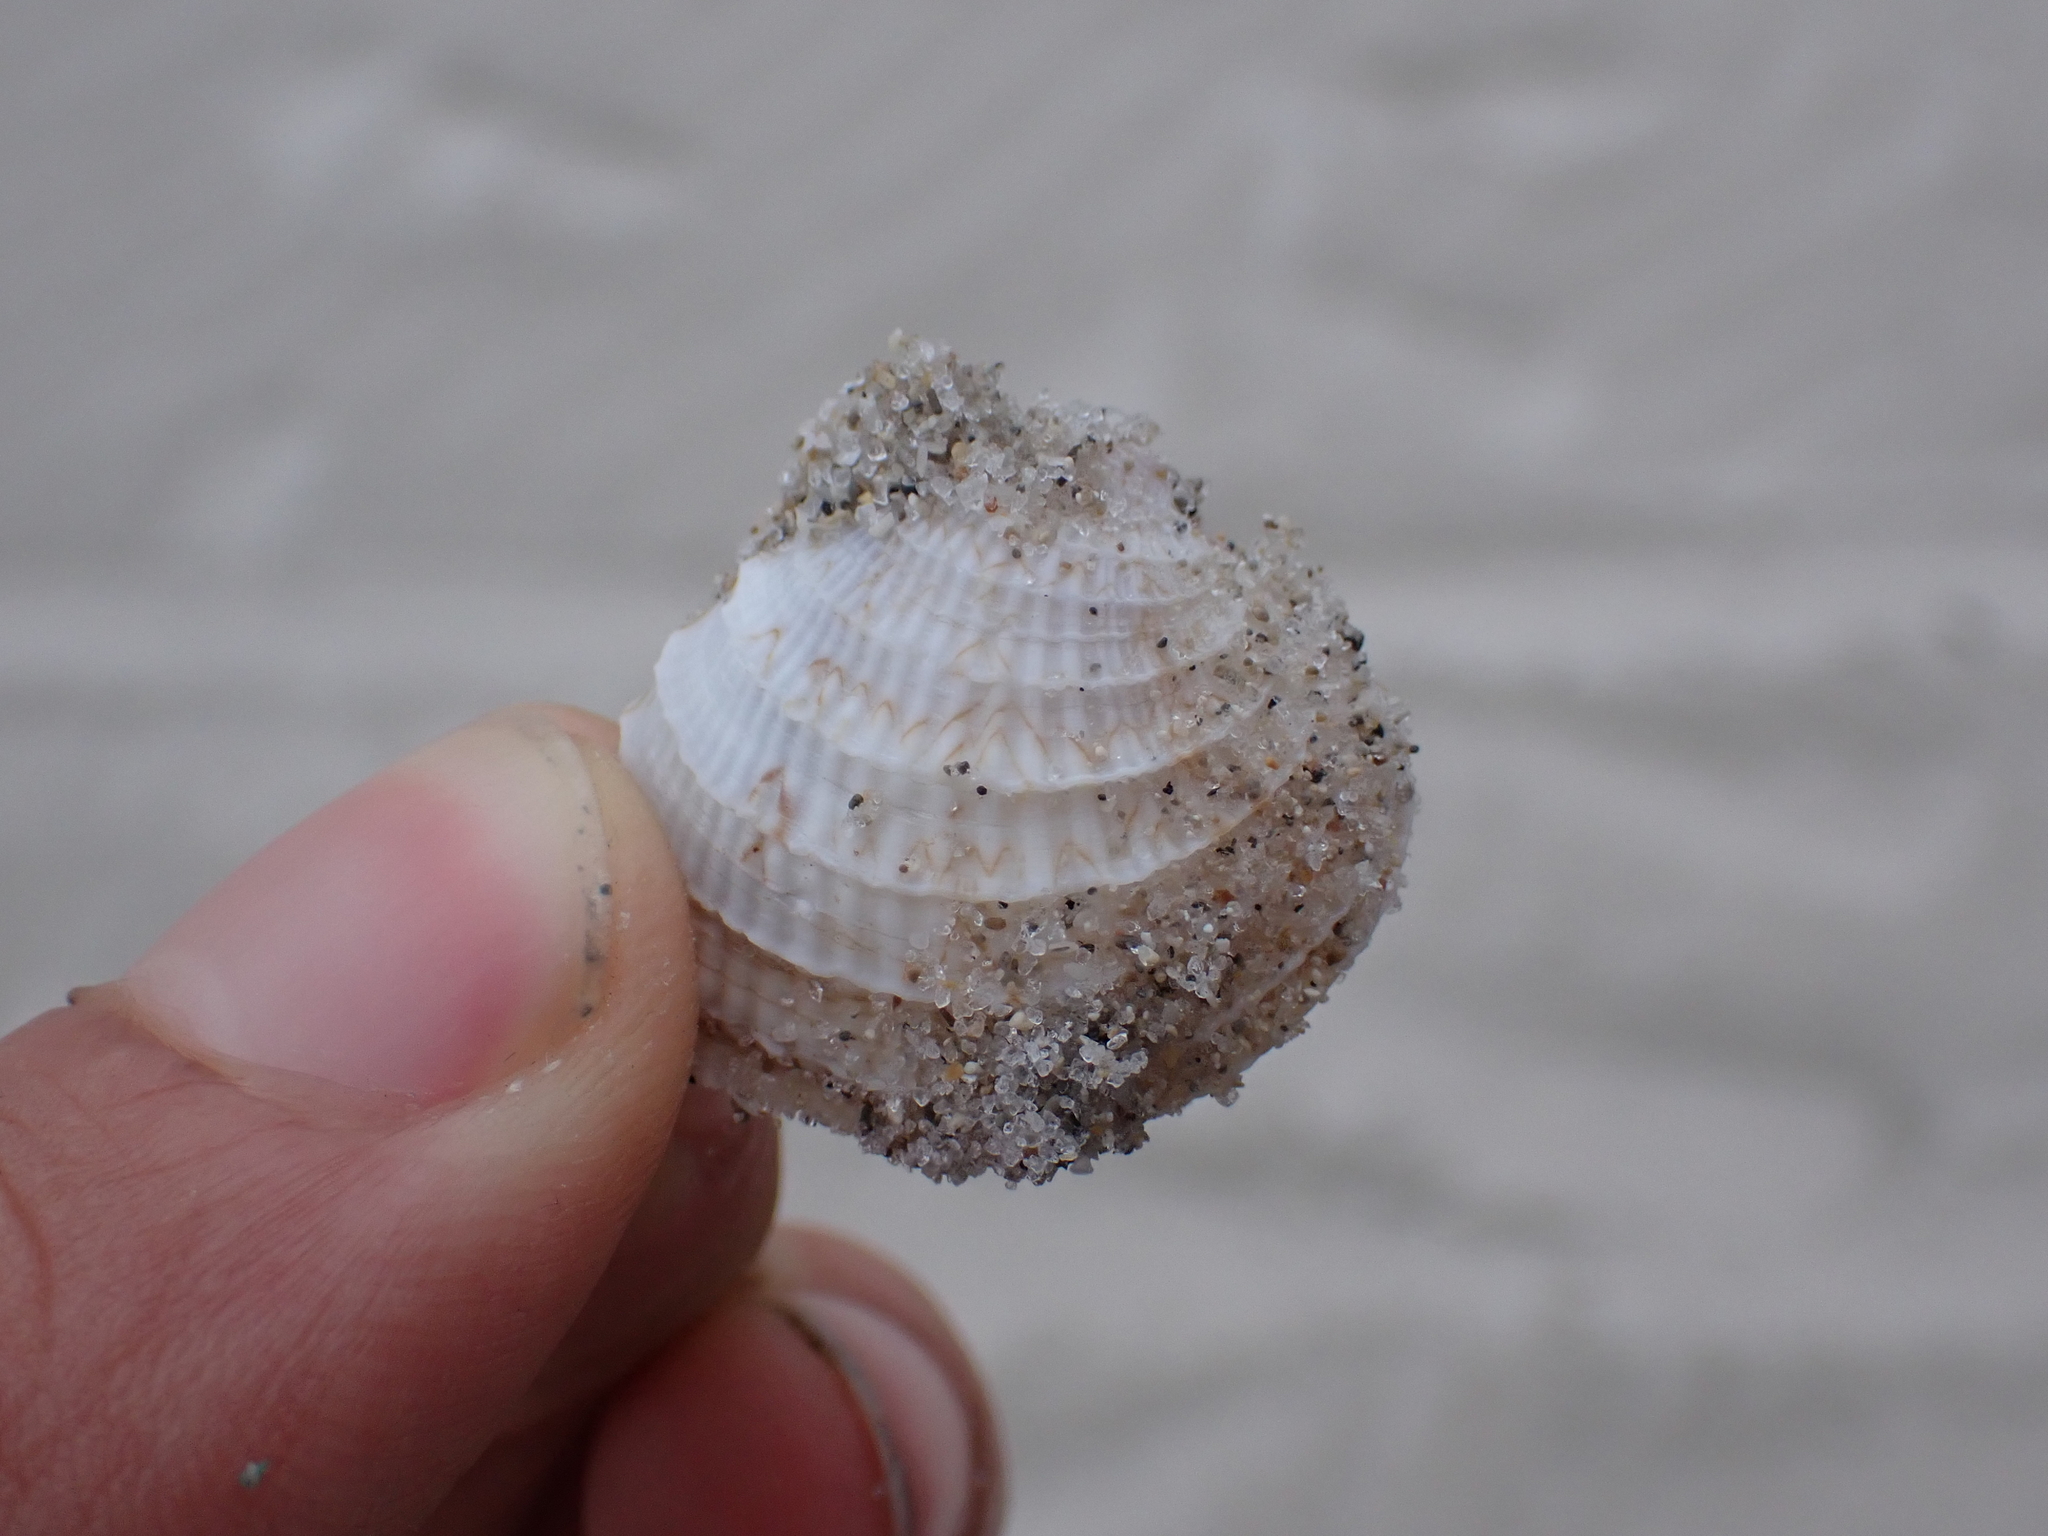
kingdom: Animalia
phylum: Mollusca
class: Bivalvia
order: Venerida
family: Veneridae
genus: Chione
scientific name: Chione elevata
